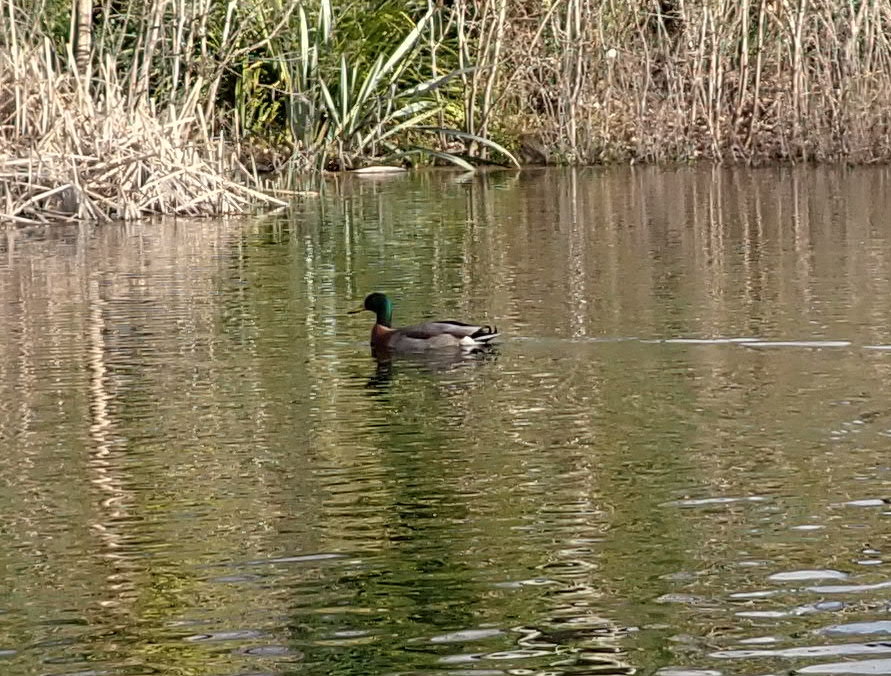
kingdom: Animalia
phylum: Chordata
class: Aves
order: Anseriformes
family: Anatidae
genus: Anas
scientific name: Anas platyrhynchos
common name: Mallard
